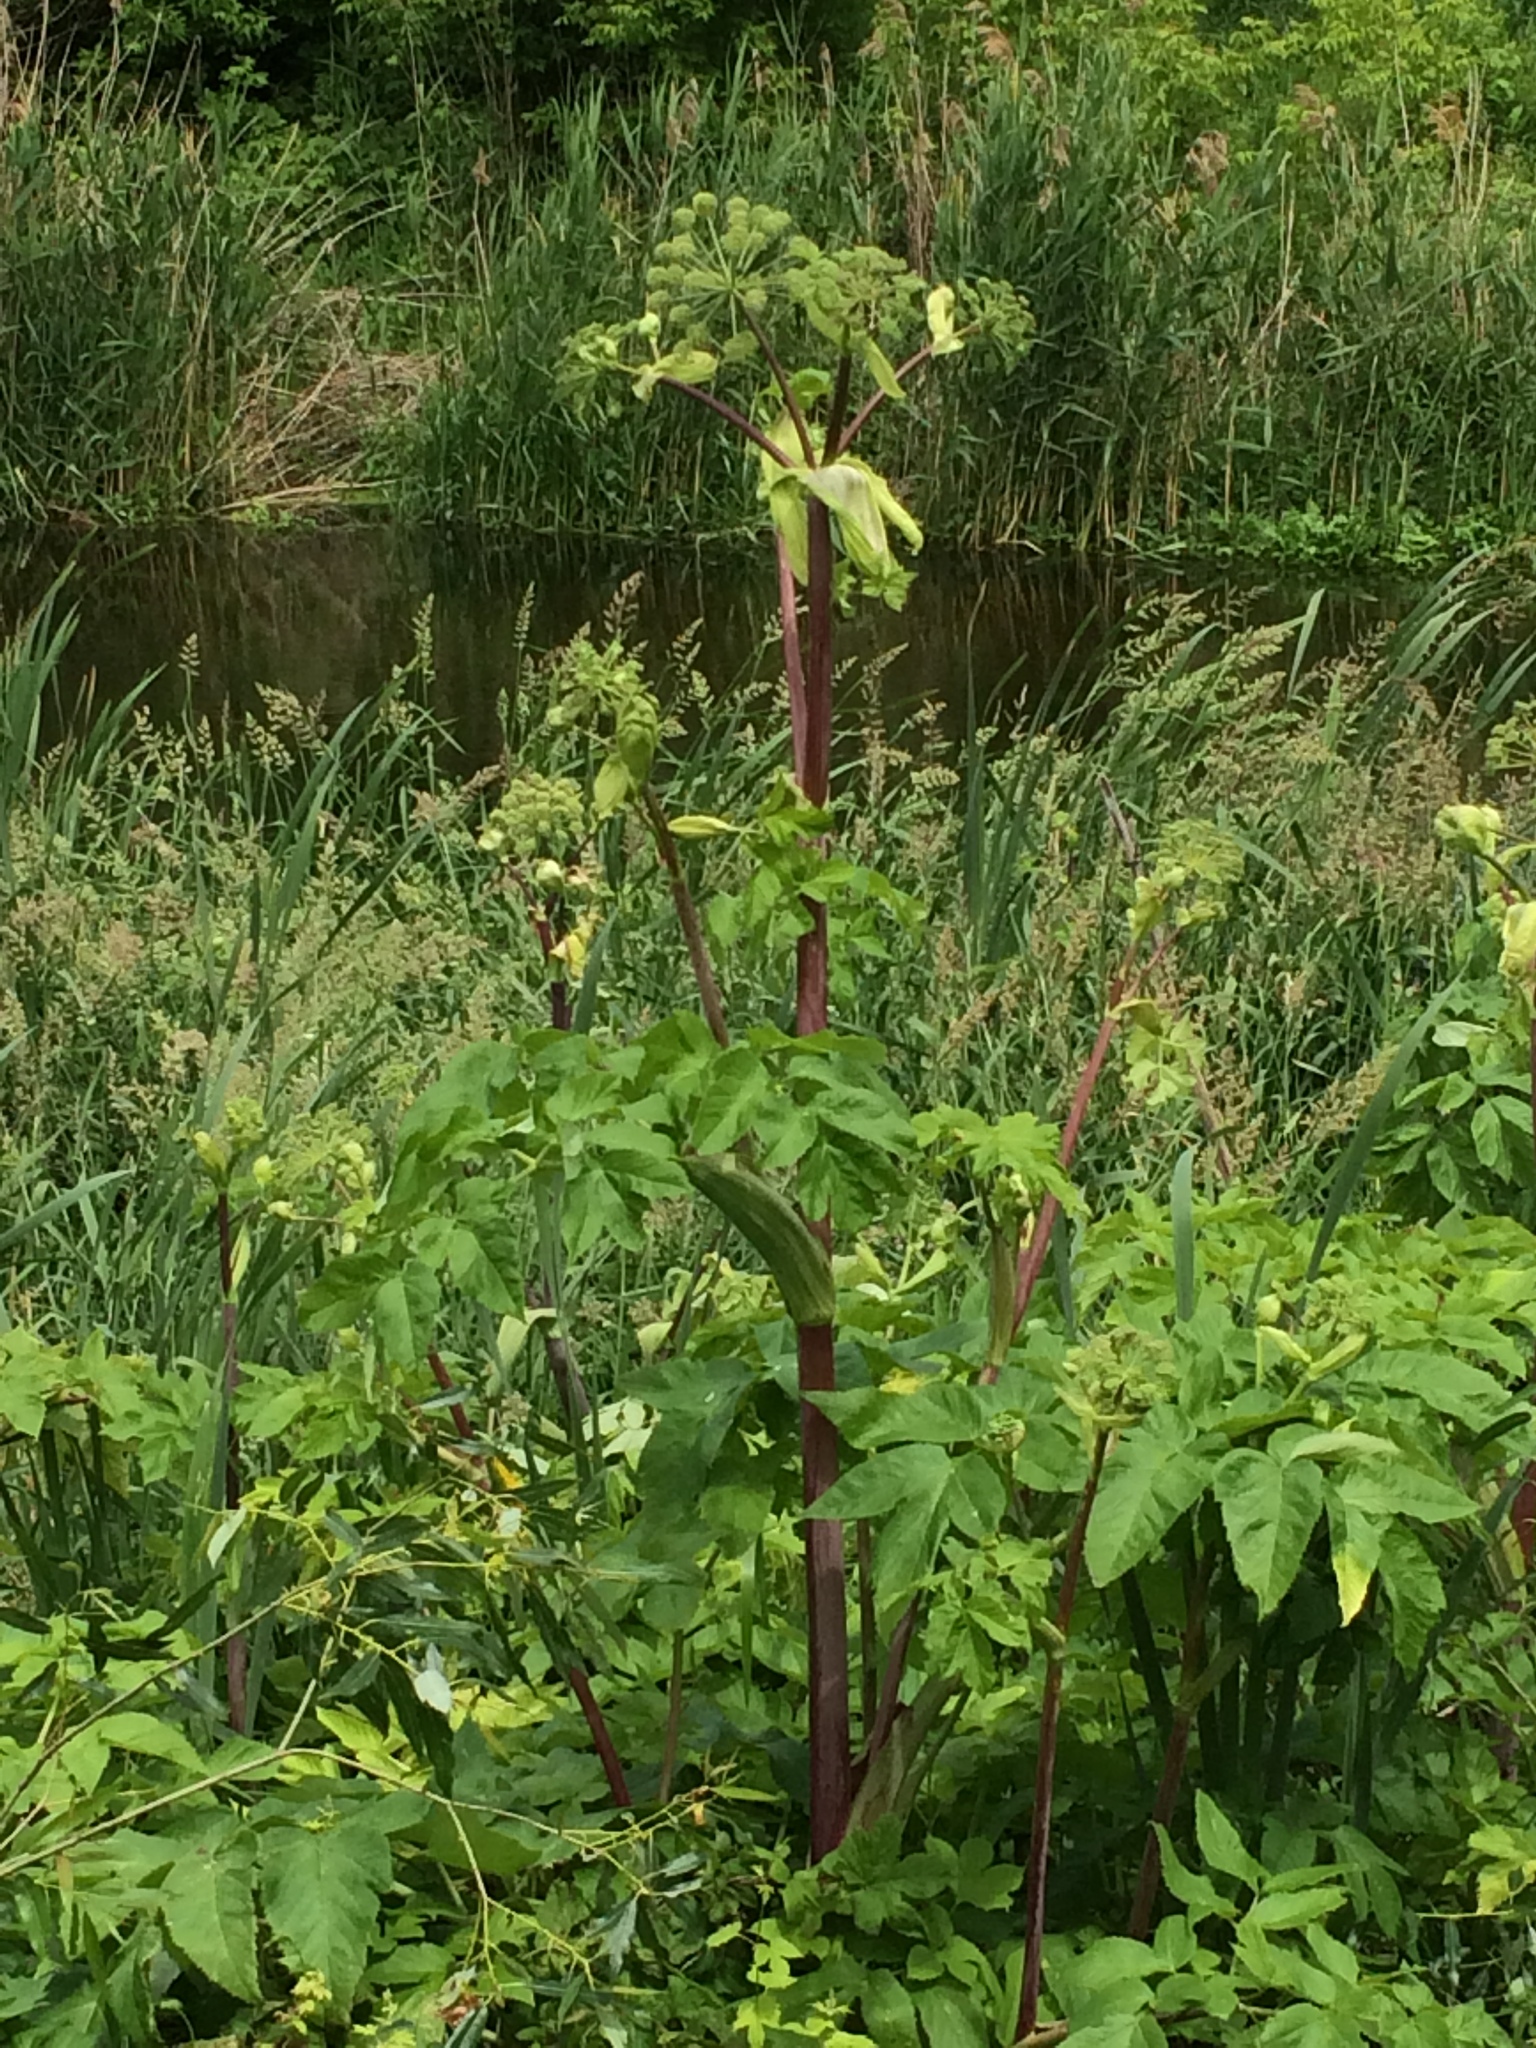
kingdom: Plantae
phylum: Tracheophyta
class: Magnoliopsida
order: Apiales
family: Apiaceae
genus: Angelica
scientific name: Angelica archangelica
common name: Garden angelica
